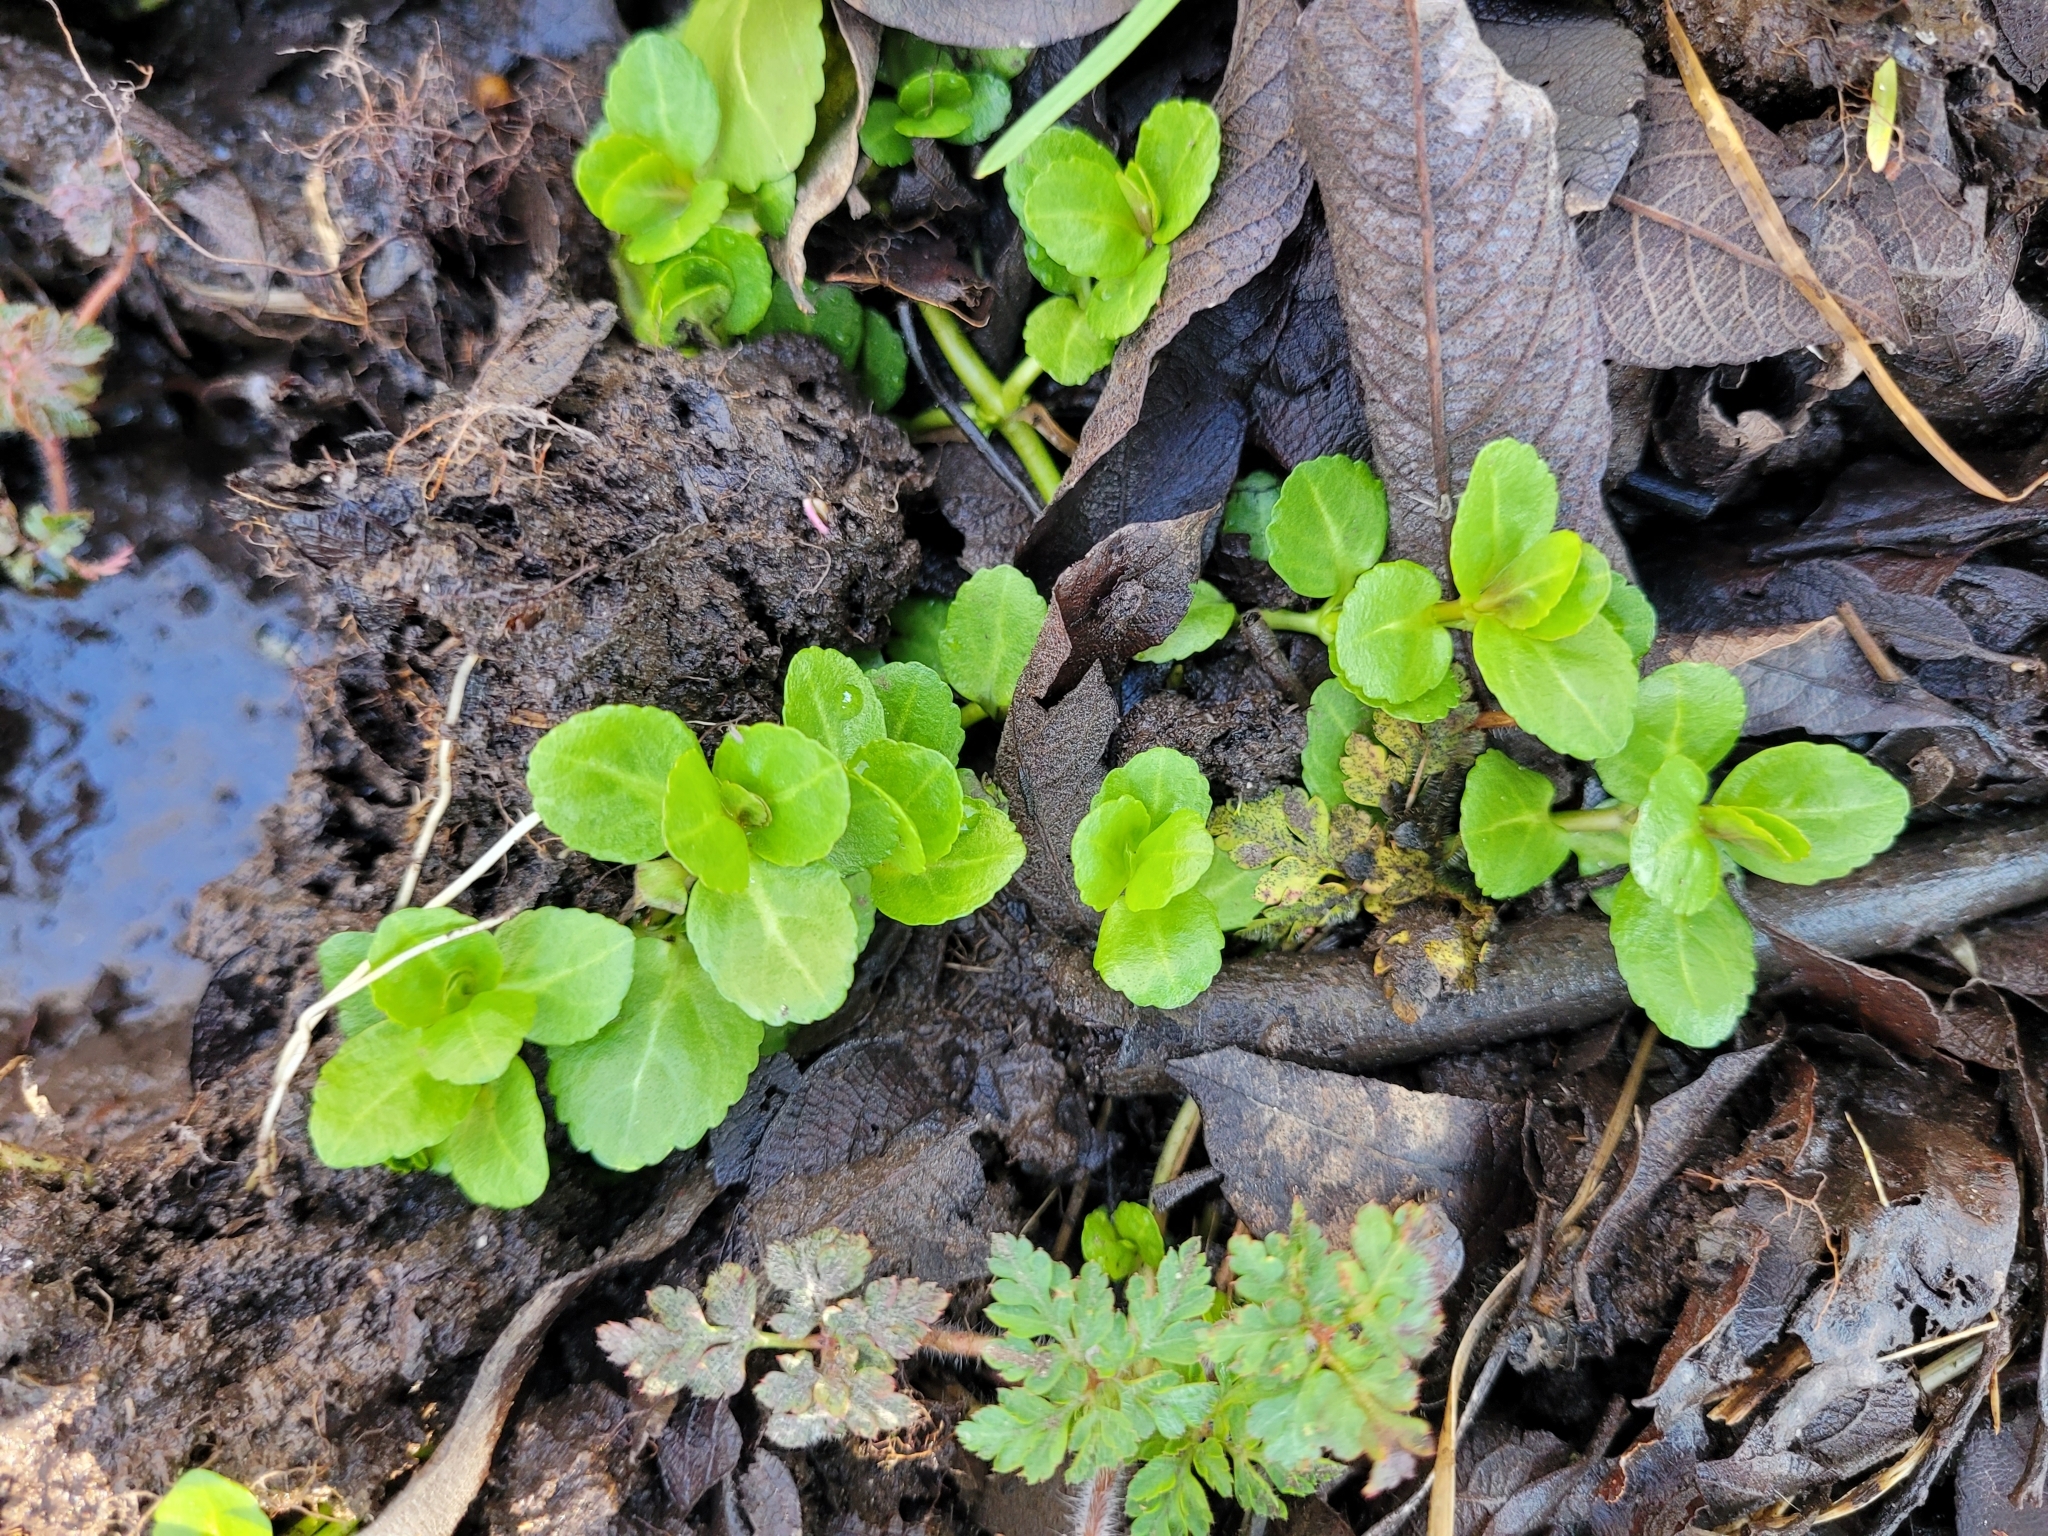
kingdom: Plantae
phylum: Tracheophyta
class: Magnoliopsida
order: Lamiales
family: Plantaginaceae
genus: Veronica
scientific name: Veronica beccabunga
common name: Brooklime
